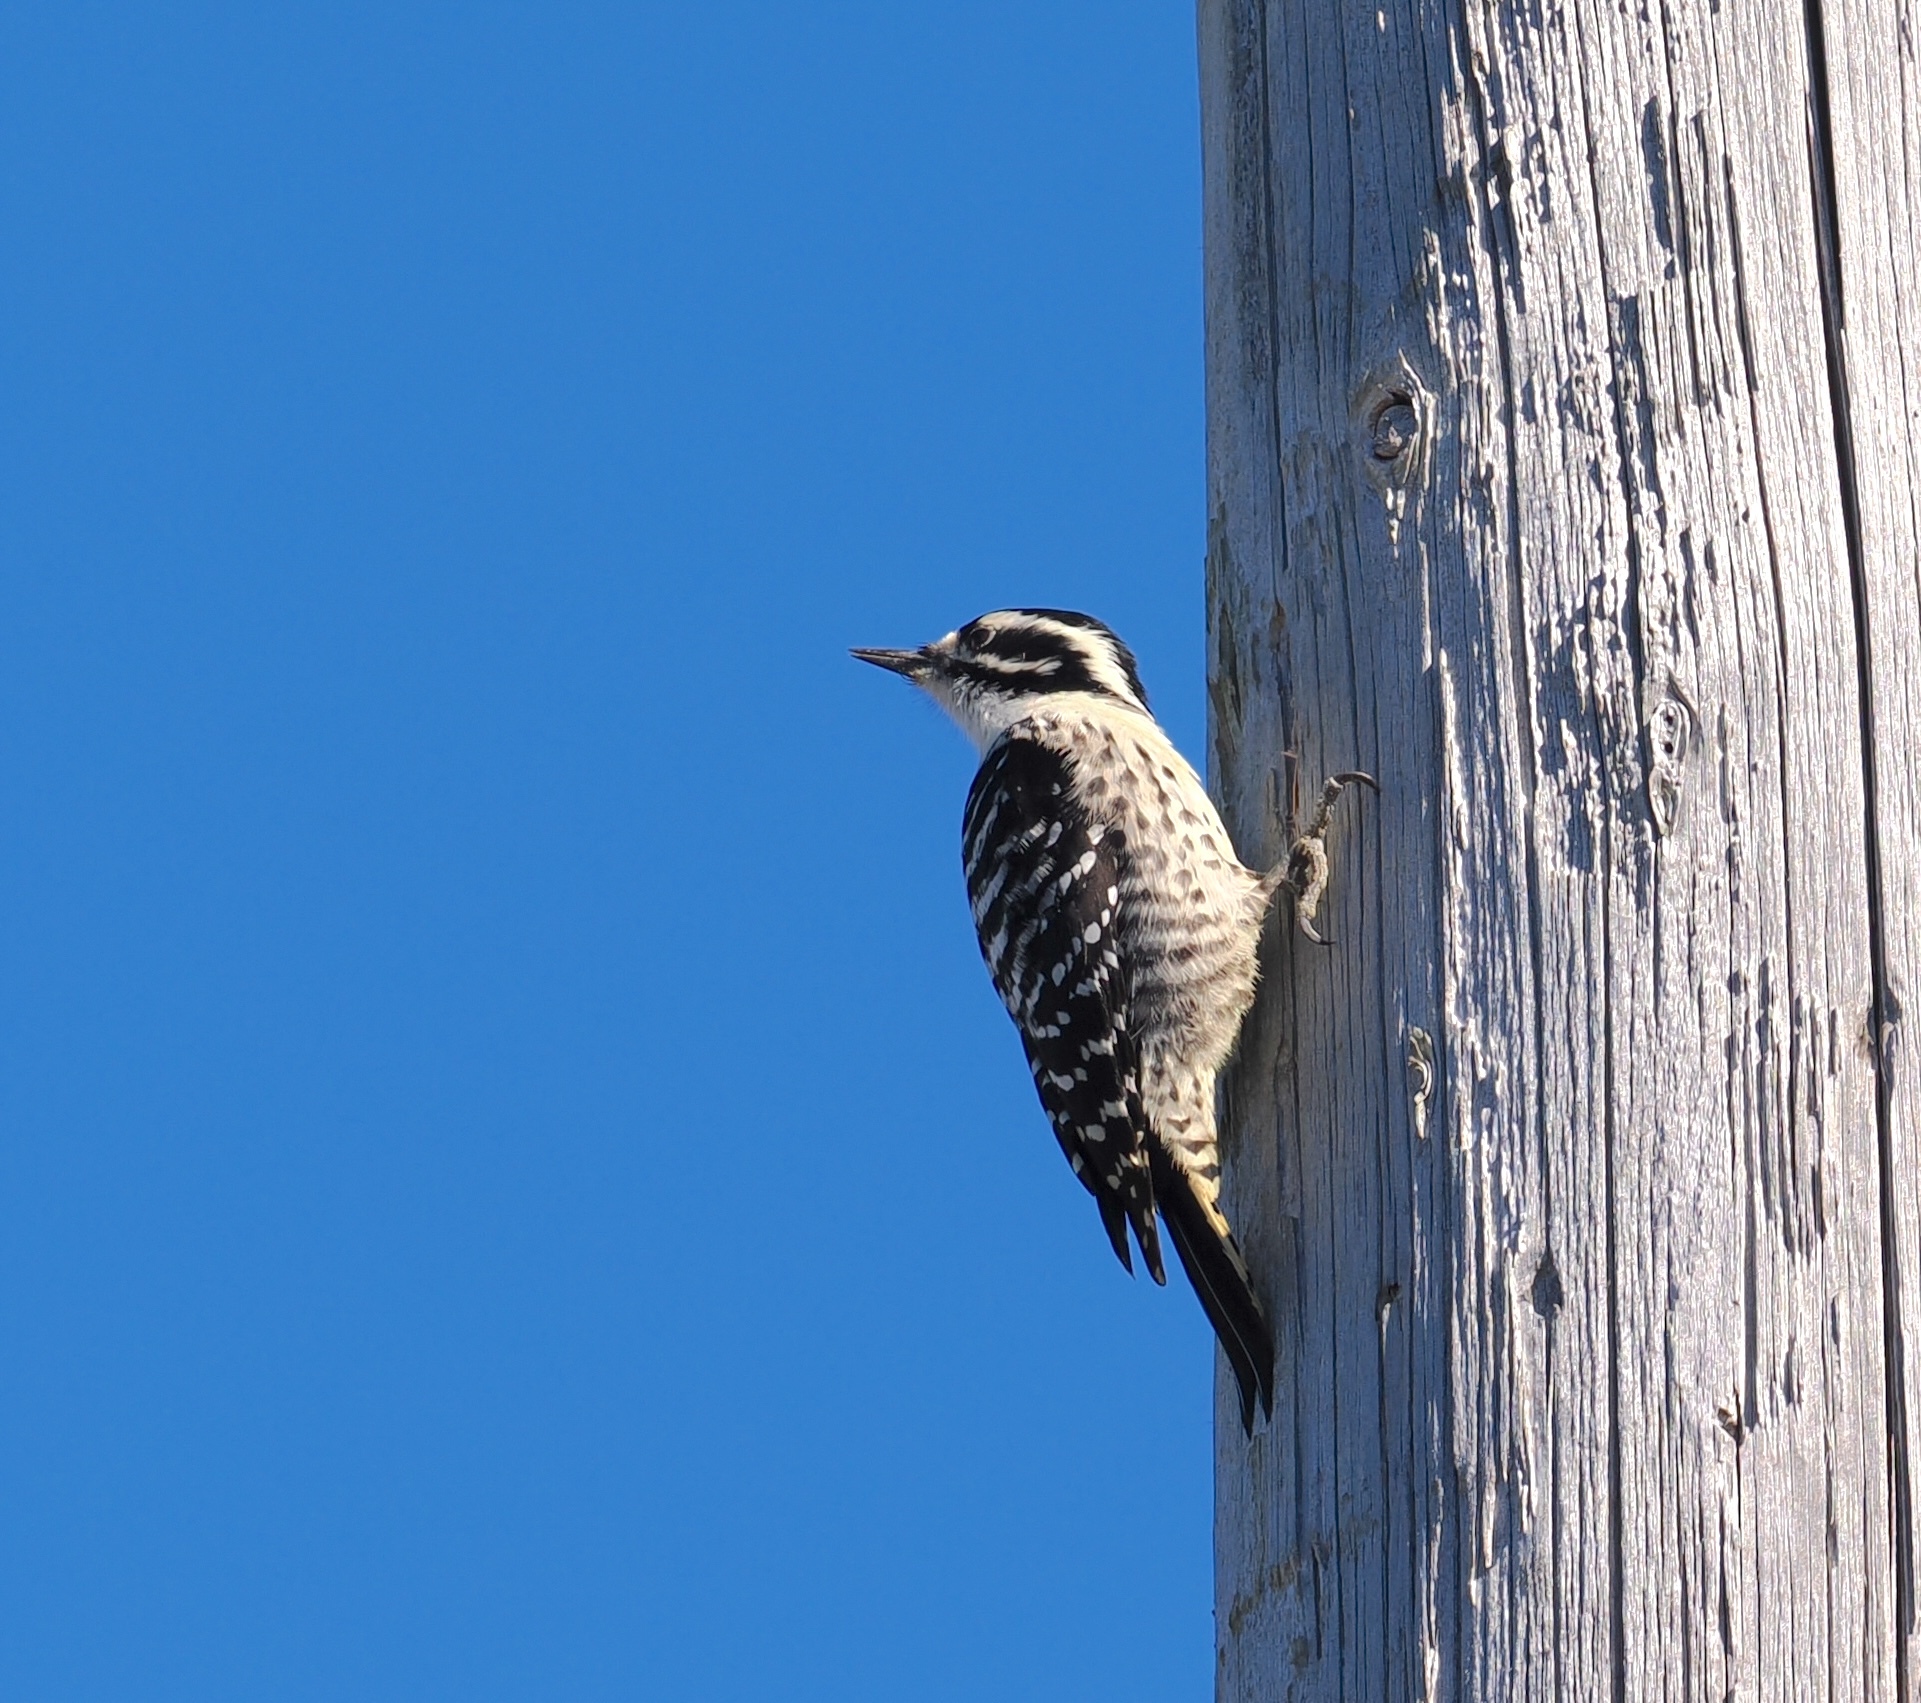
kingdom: Animalia
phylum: Chordata
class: Aves
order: Piciformes
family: Picidae
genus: Dryobates
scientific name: Dryobates nuttallii
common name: Nuttall's woodpecker
